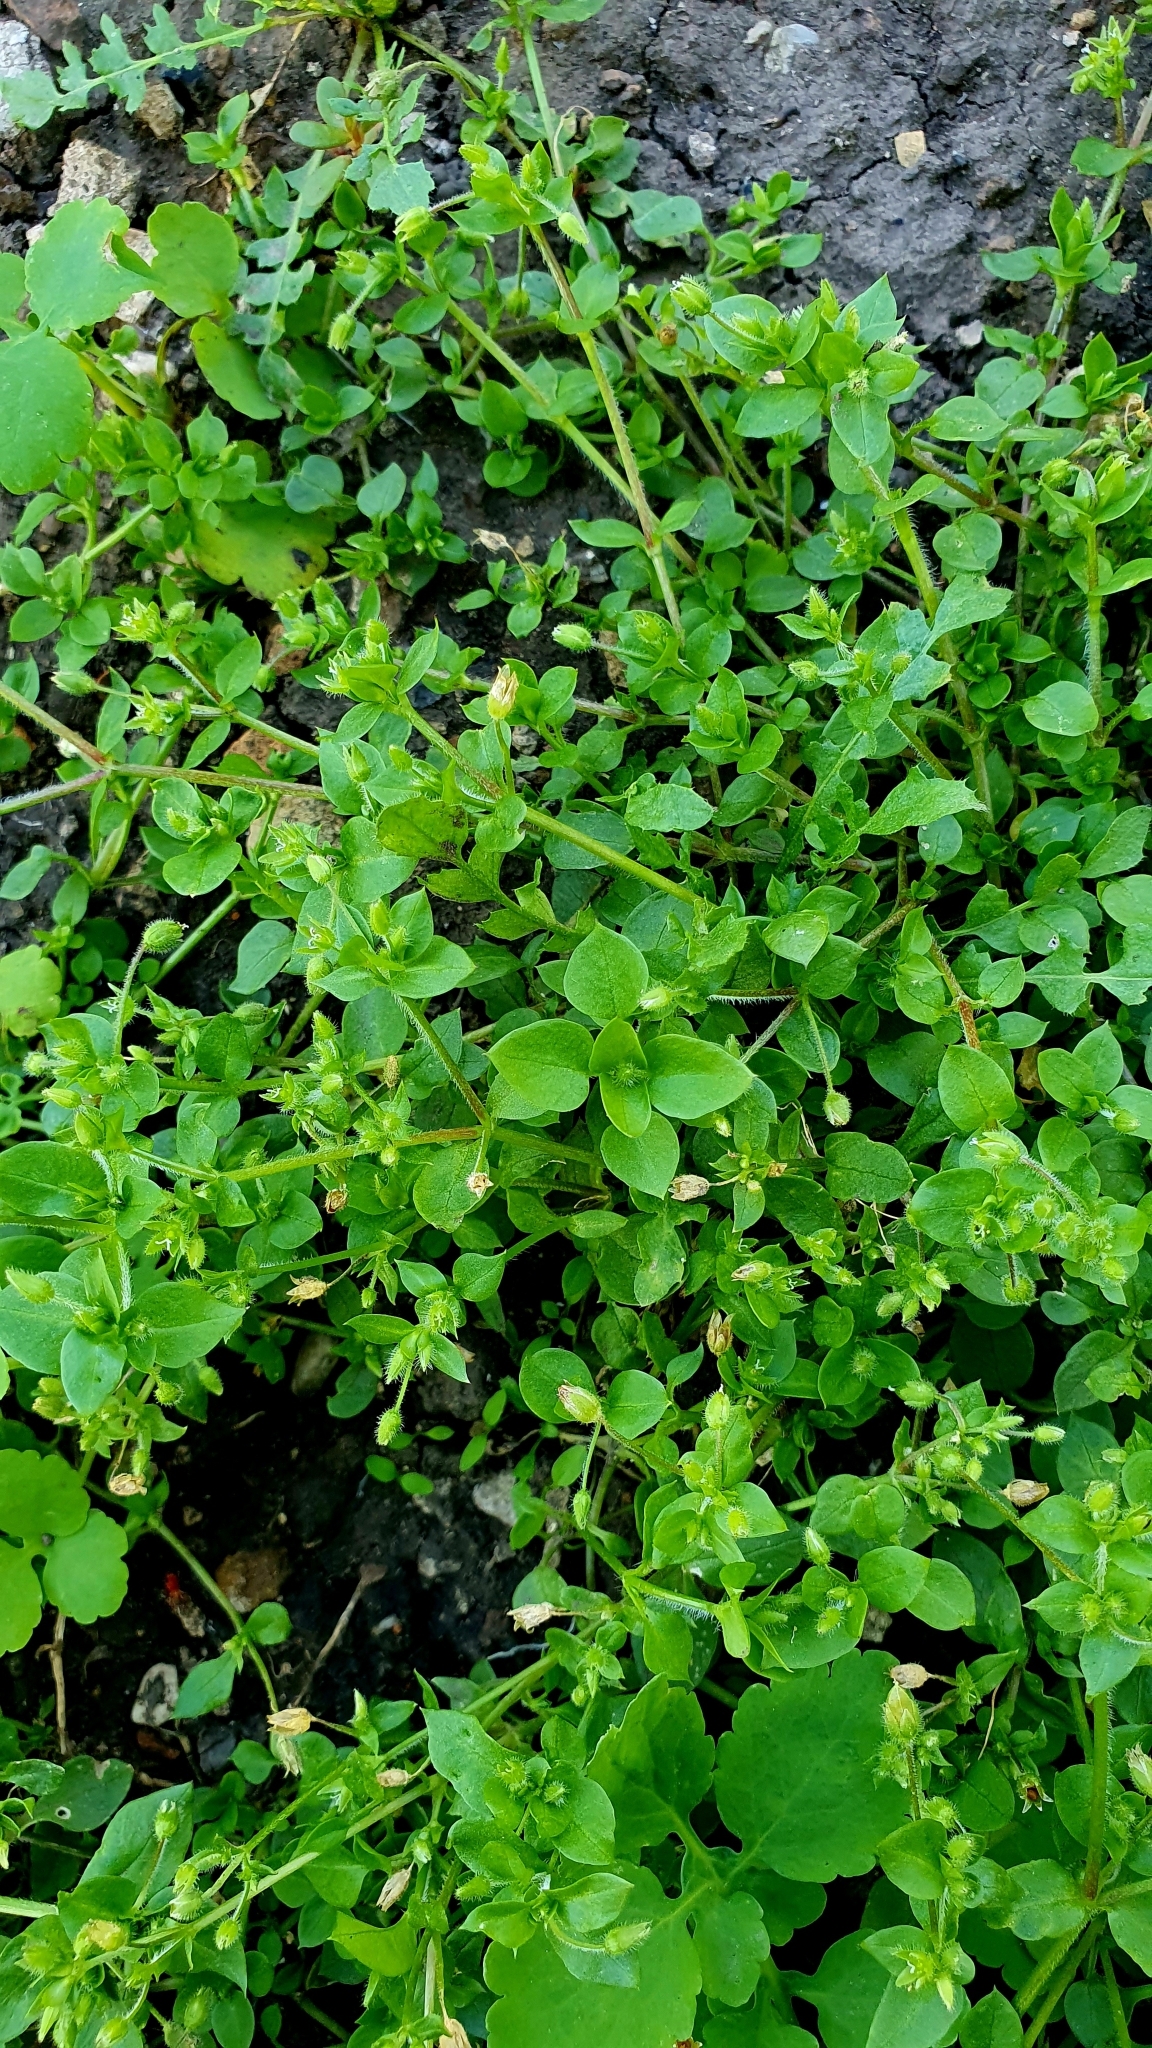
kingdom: Plantae
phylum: Tracheophyta
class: Magnoliopsida
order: Caryophyllales
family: Caryophyllaceae
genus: Stellaria
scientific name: Stellaria media
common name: Common chickweed
